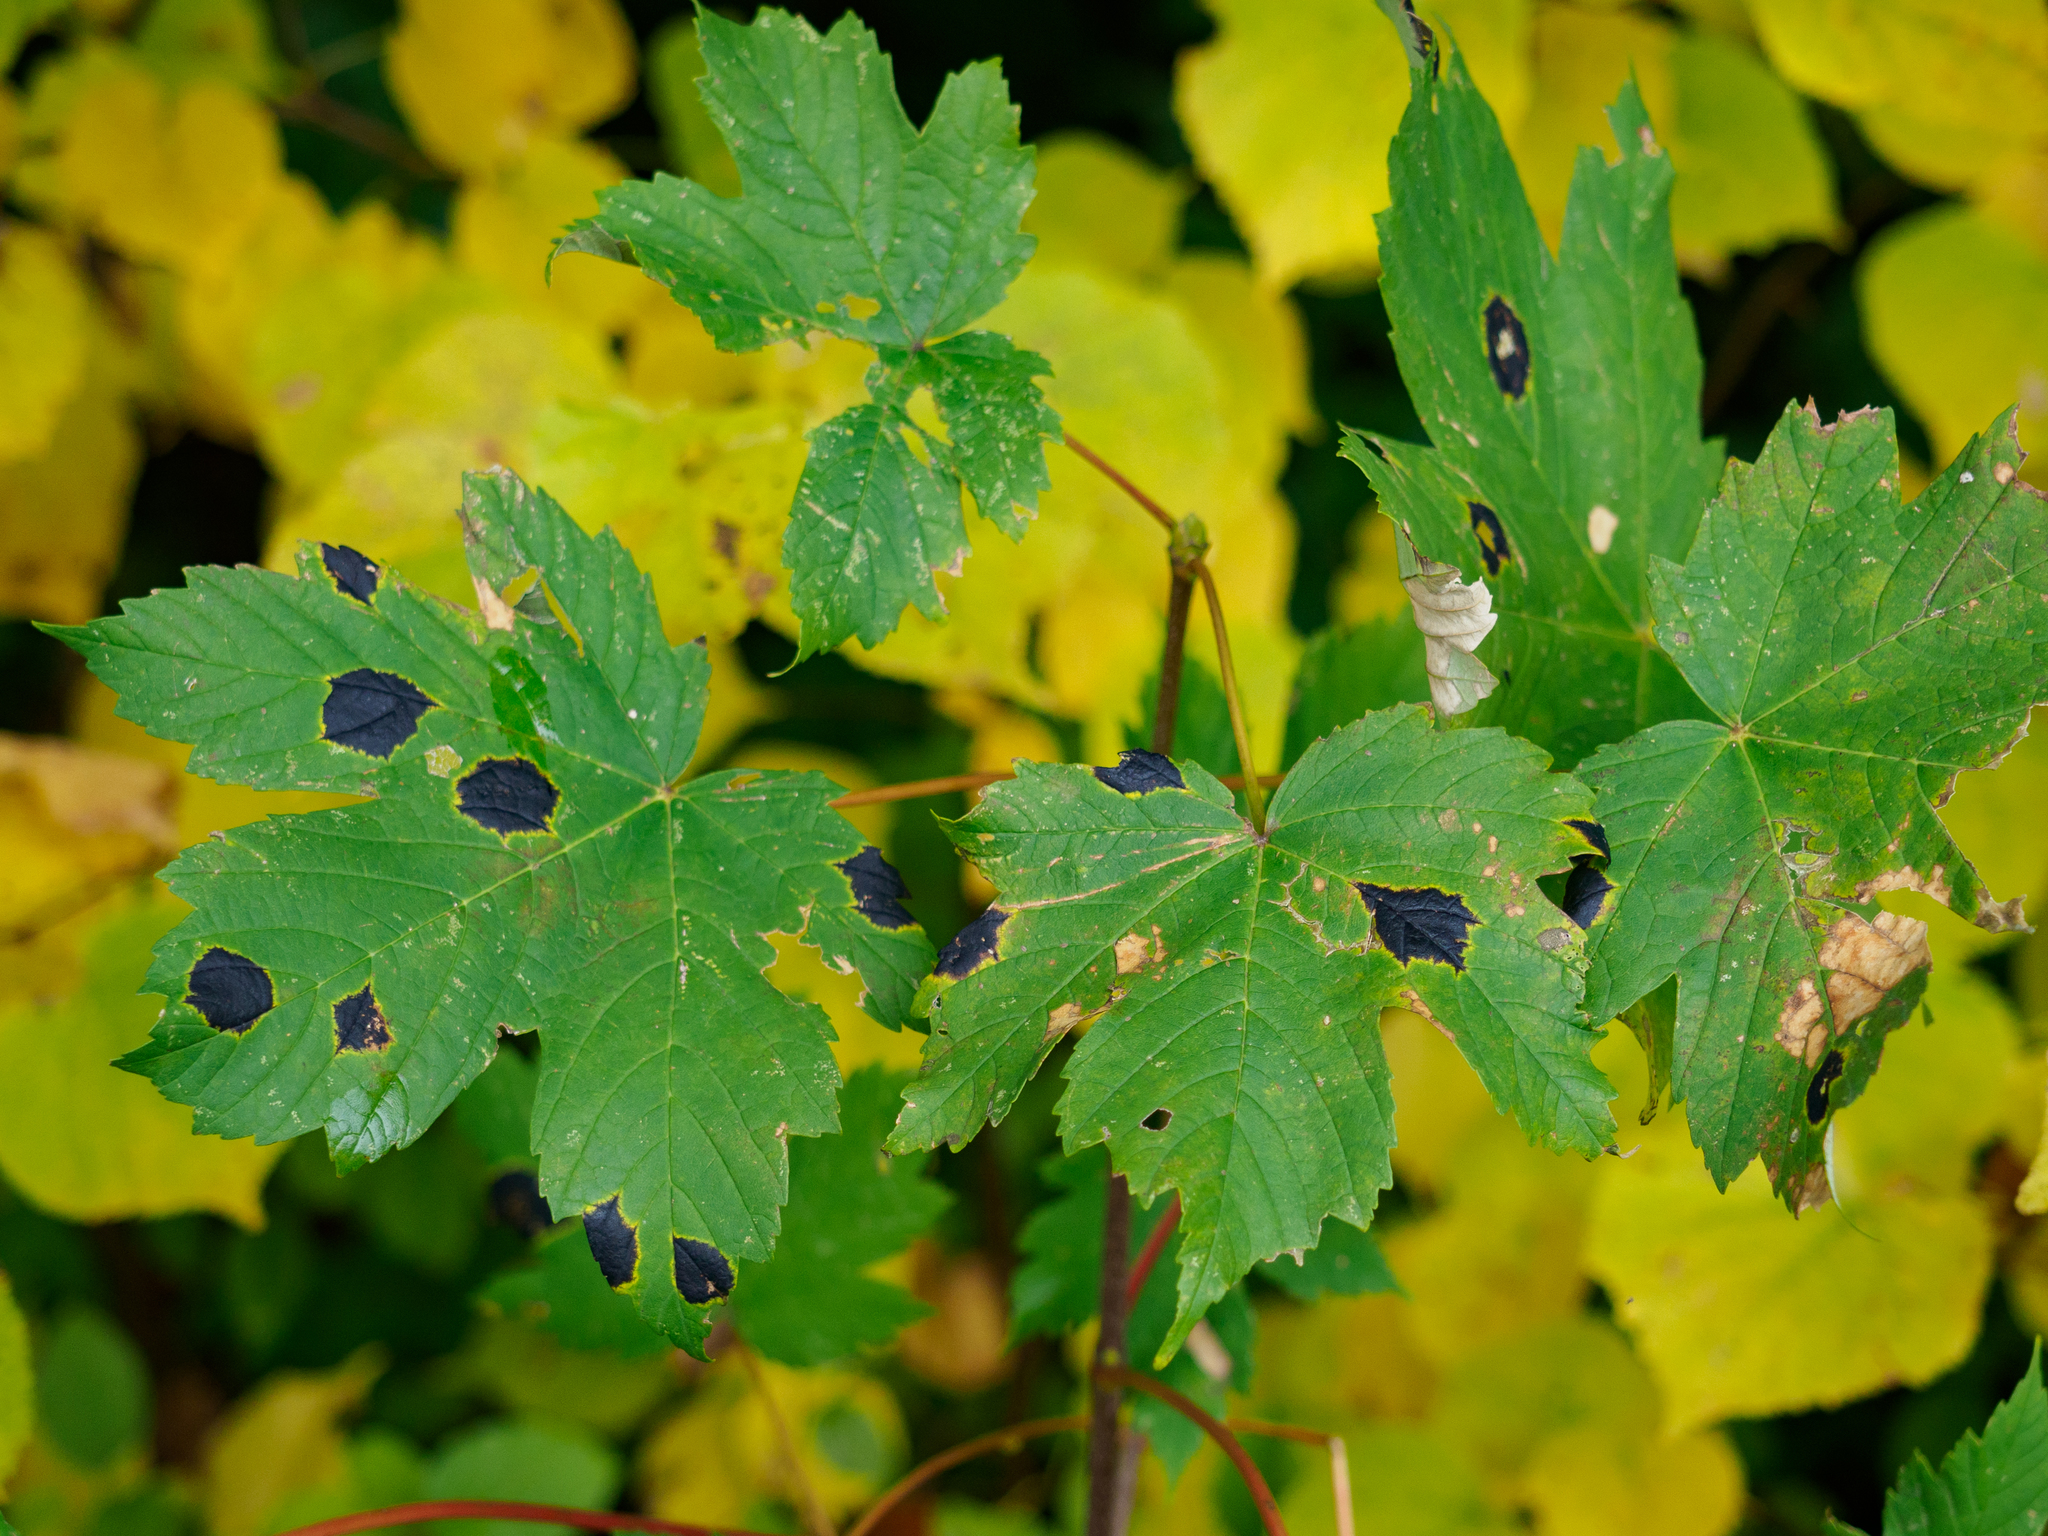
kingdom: Fungi
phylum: Ascomycota
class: Leotiomycetes
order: Rhytismatales
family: Rhytismataceae
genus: Rhytisma
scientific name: Rhytisma acerinum
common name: European tar spot
